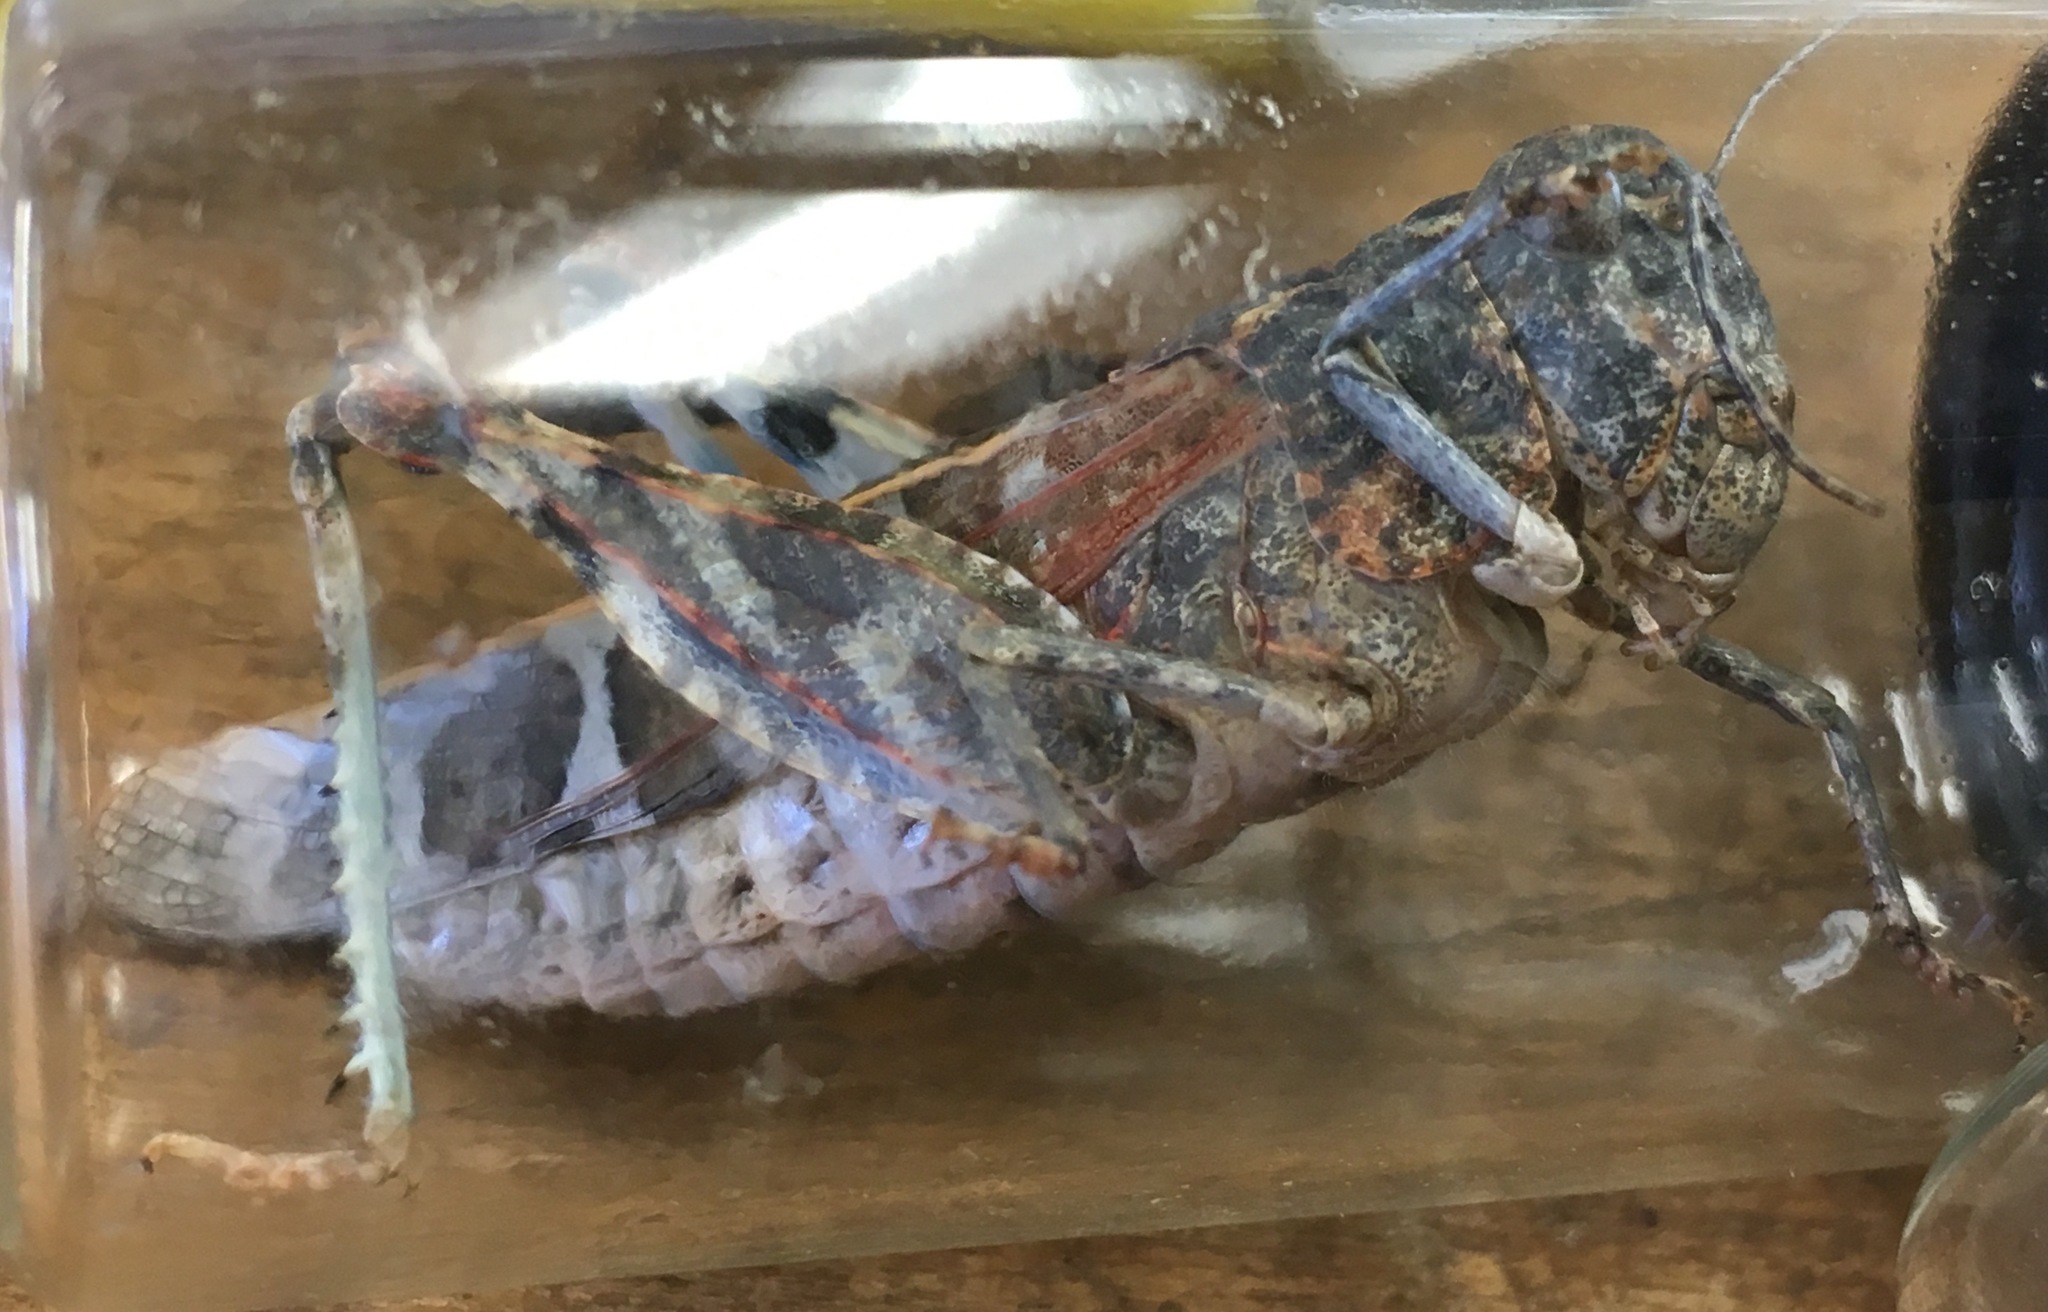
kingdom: Animalia
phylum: Arthropoda
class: Insecta
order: Orthoptera
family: Acrididae
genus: Leprus
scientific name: Leprus intermedius
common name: Saussure's blue-winged grasshopper
